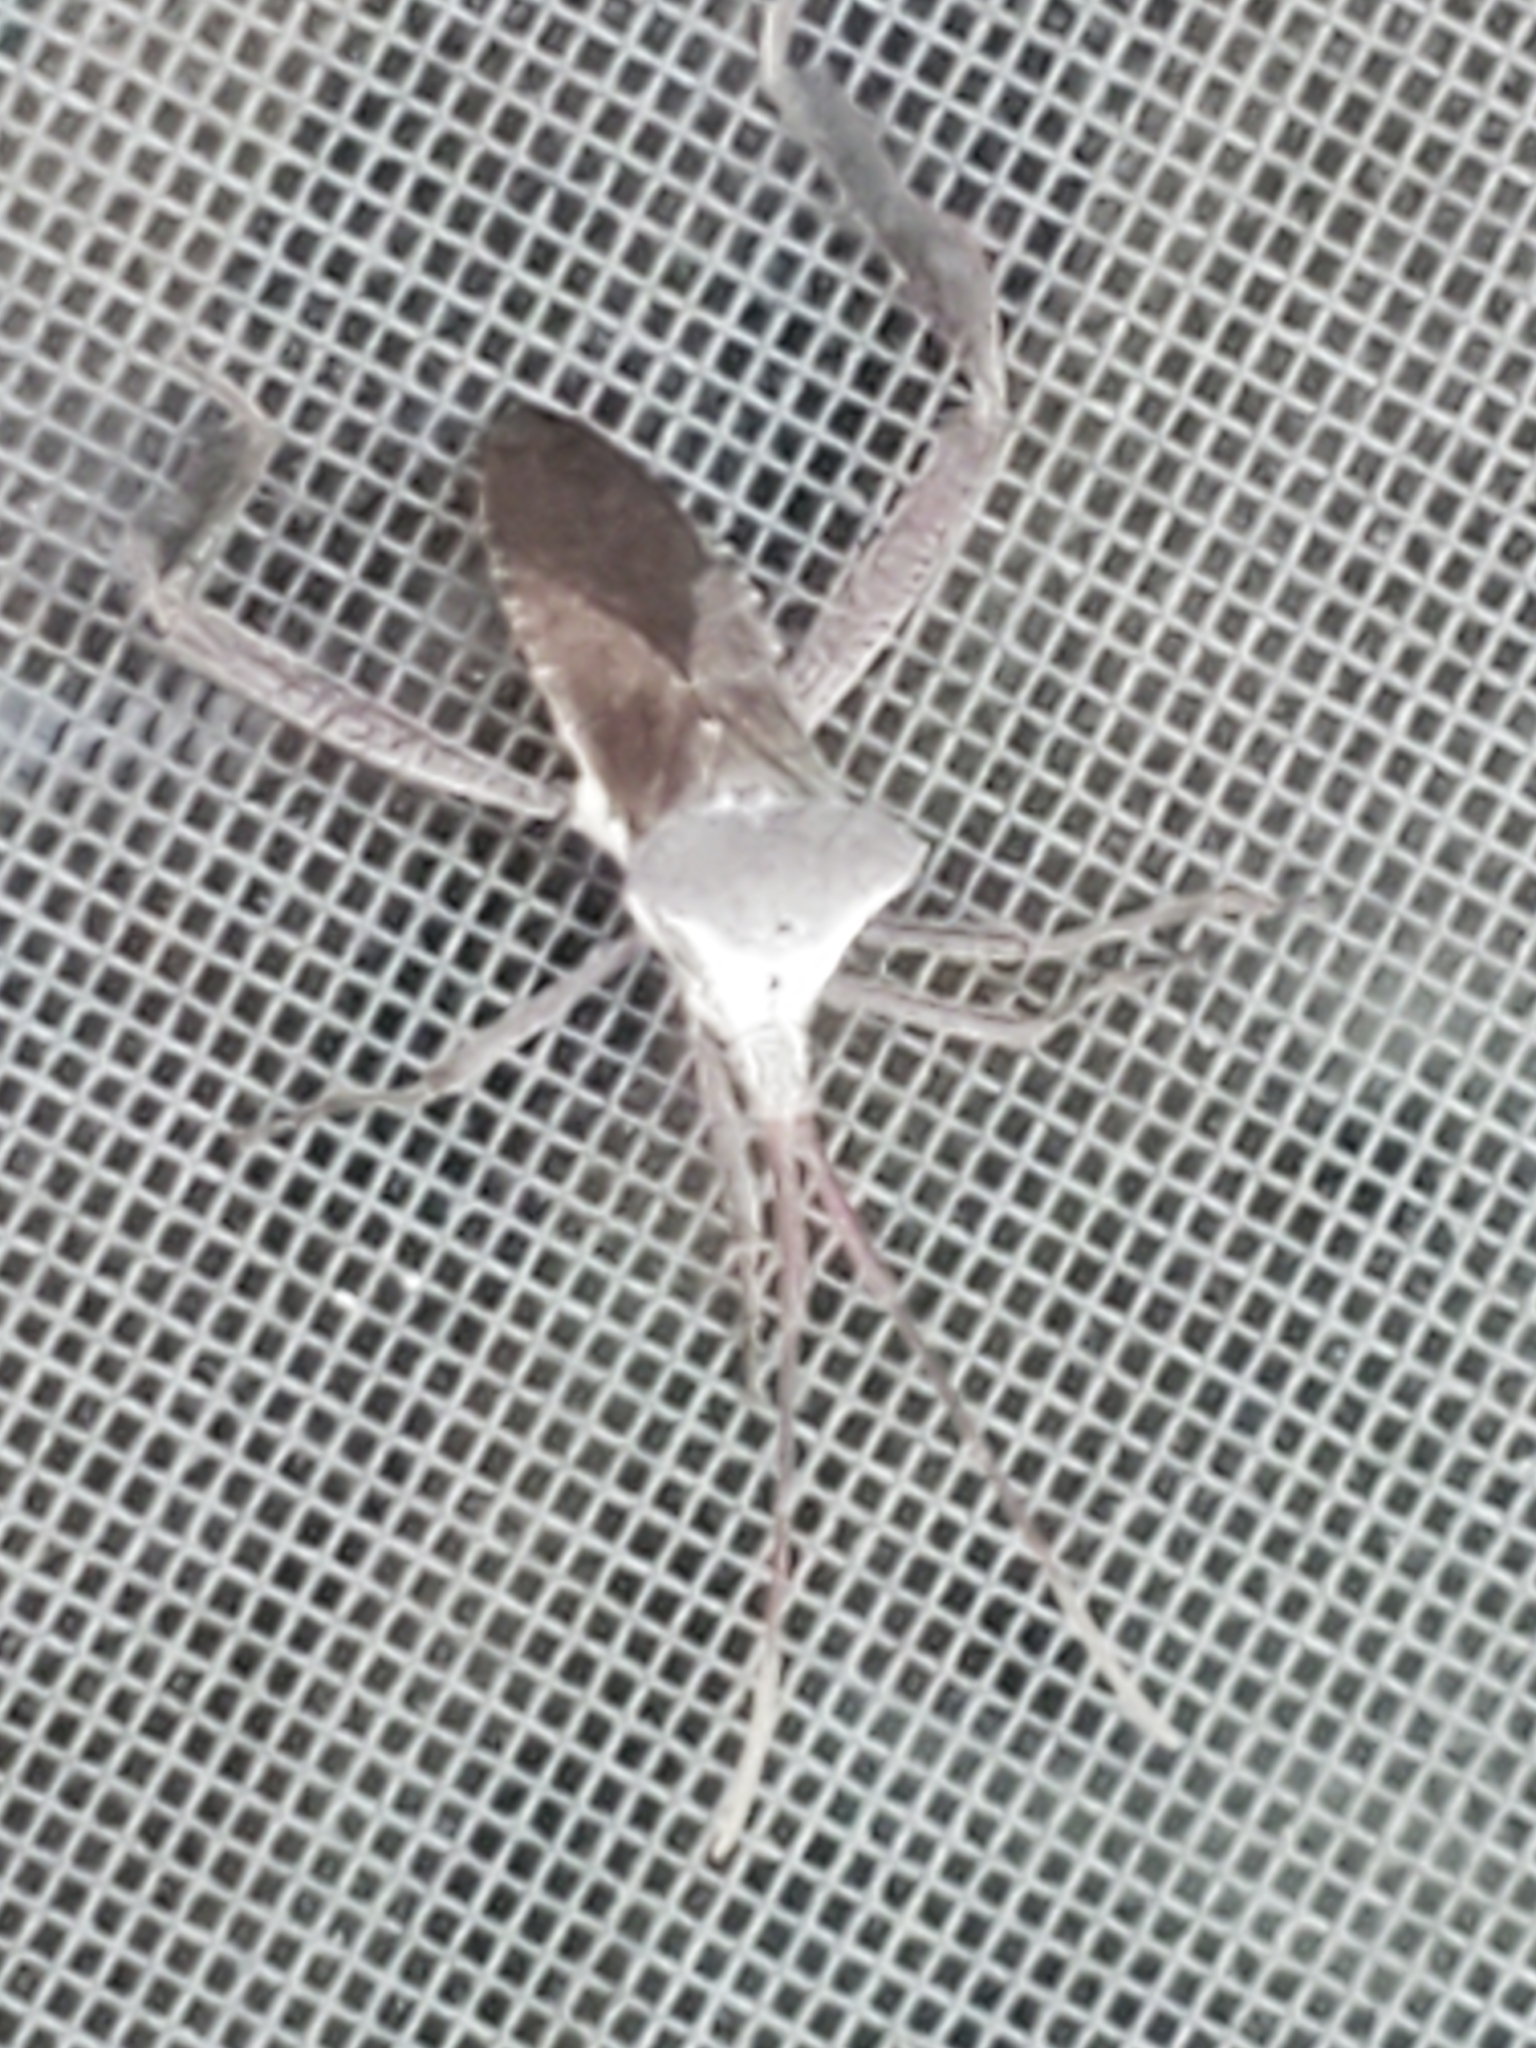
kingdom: Animalia
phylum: Arthropoda
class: Insecta
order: Hemiptera
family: Coreidae
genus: Acanthocephala
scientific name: Acanthocephala declivis
